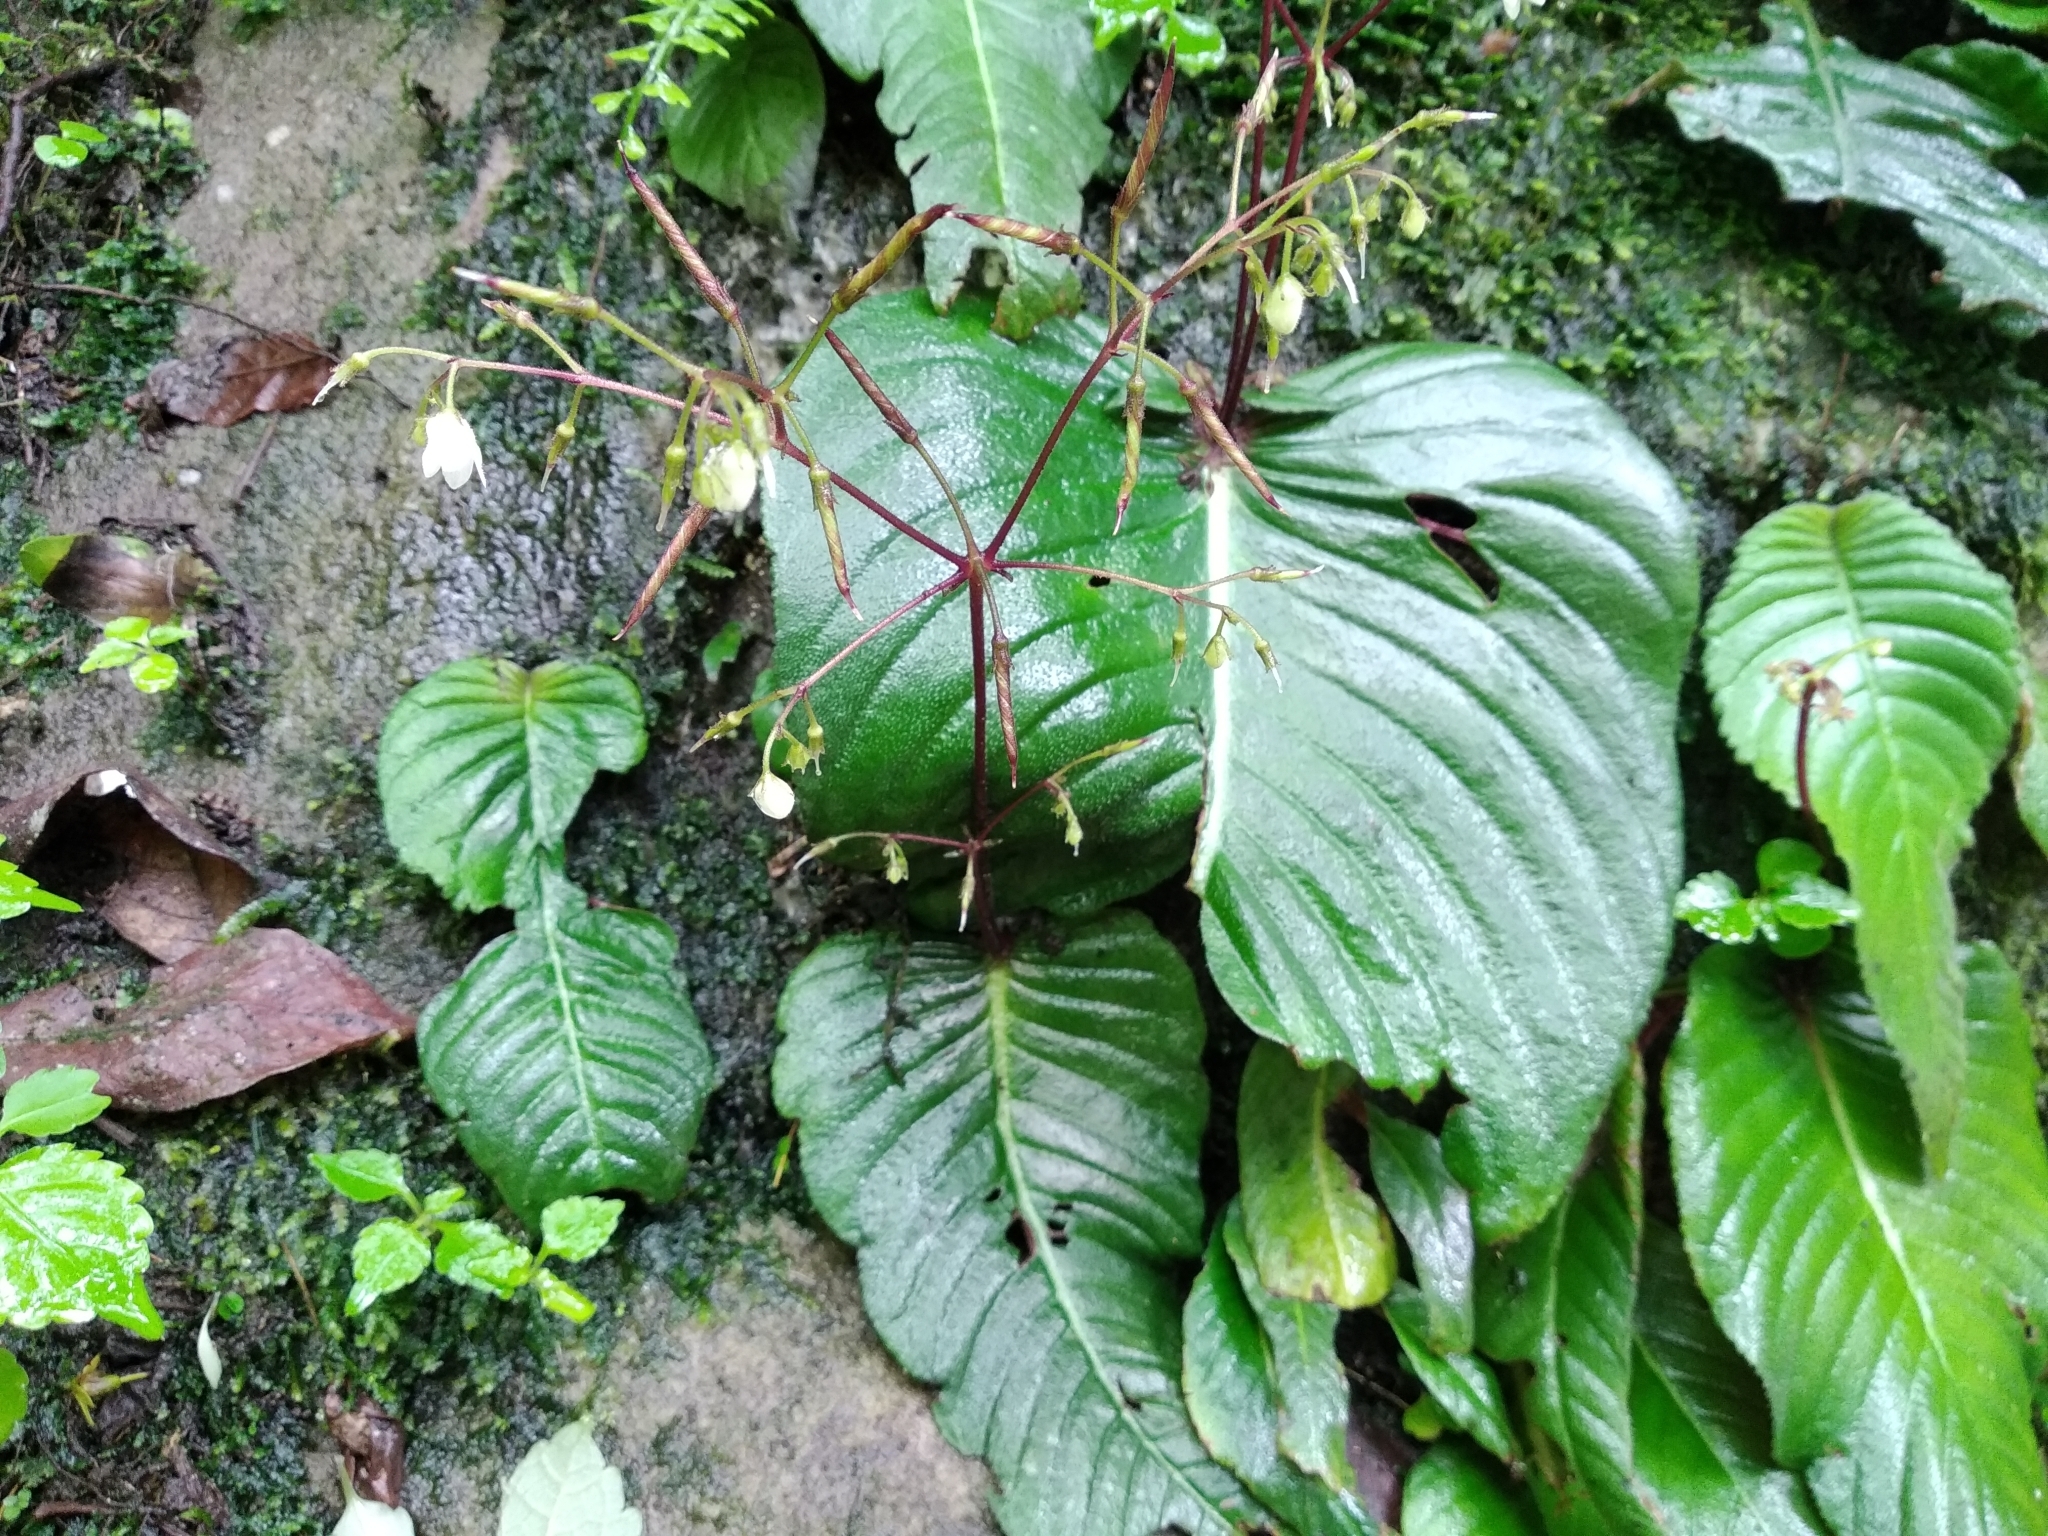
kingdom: Plantae
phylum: Tracheophyta
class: Magnoliopsida
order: Lamiales
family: Gesneriaceae
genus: Streptocarpus
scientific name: Streptocarpus micranthus
